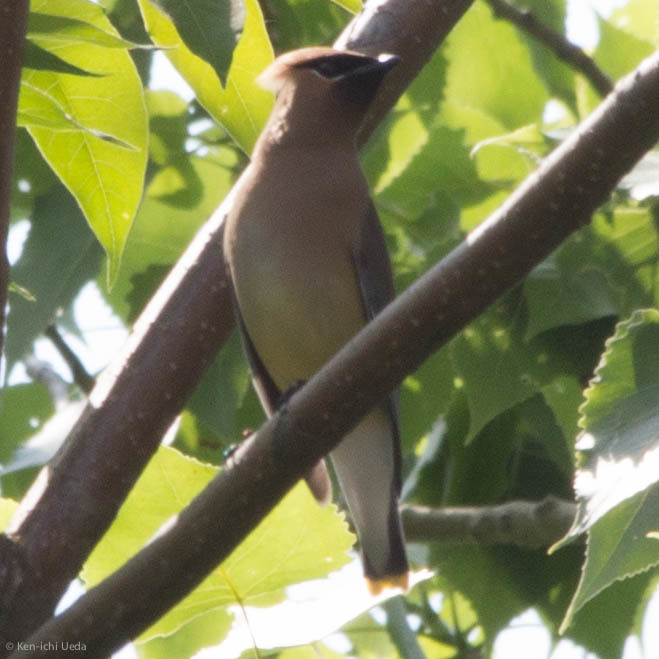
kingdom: Animalia
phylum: Chordata
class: Aves
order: Passeriformes
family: Bombycillidae
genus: Bombycilla
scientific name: Bombycilla cedrorum
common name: Cedar waxwing
